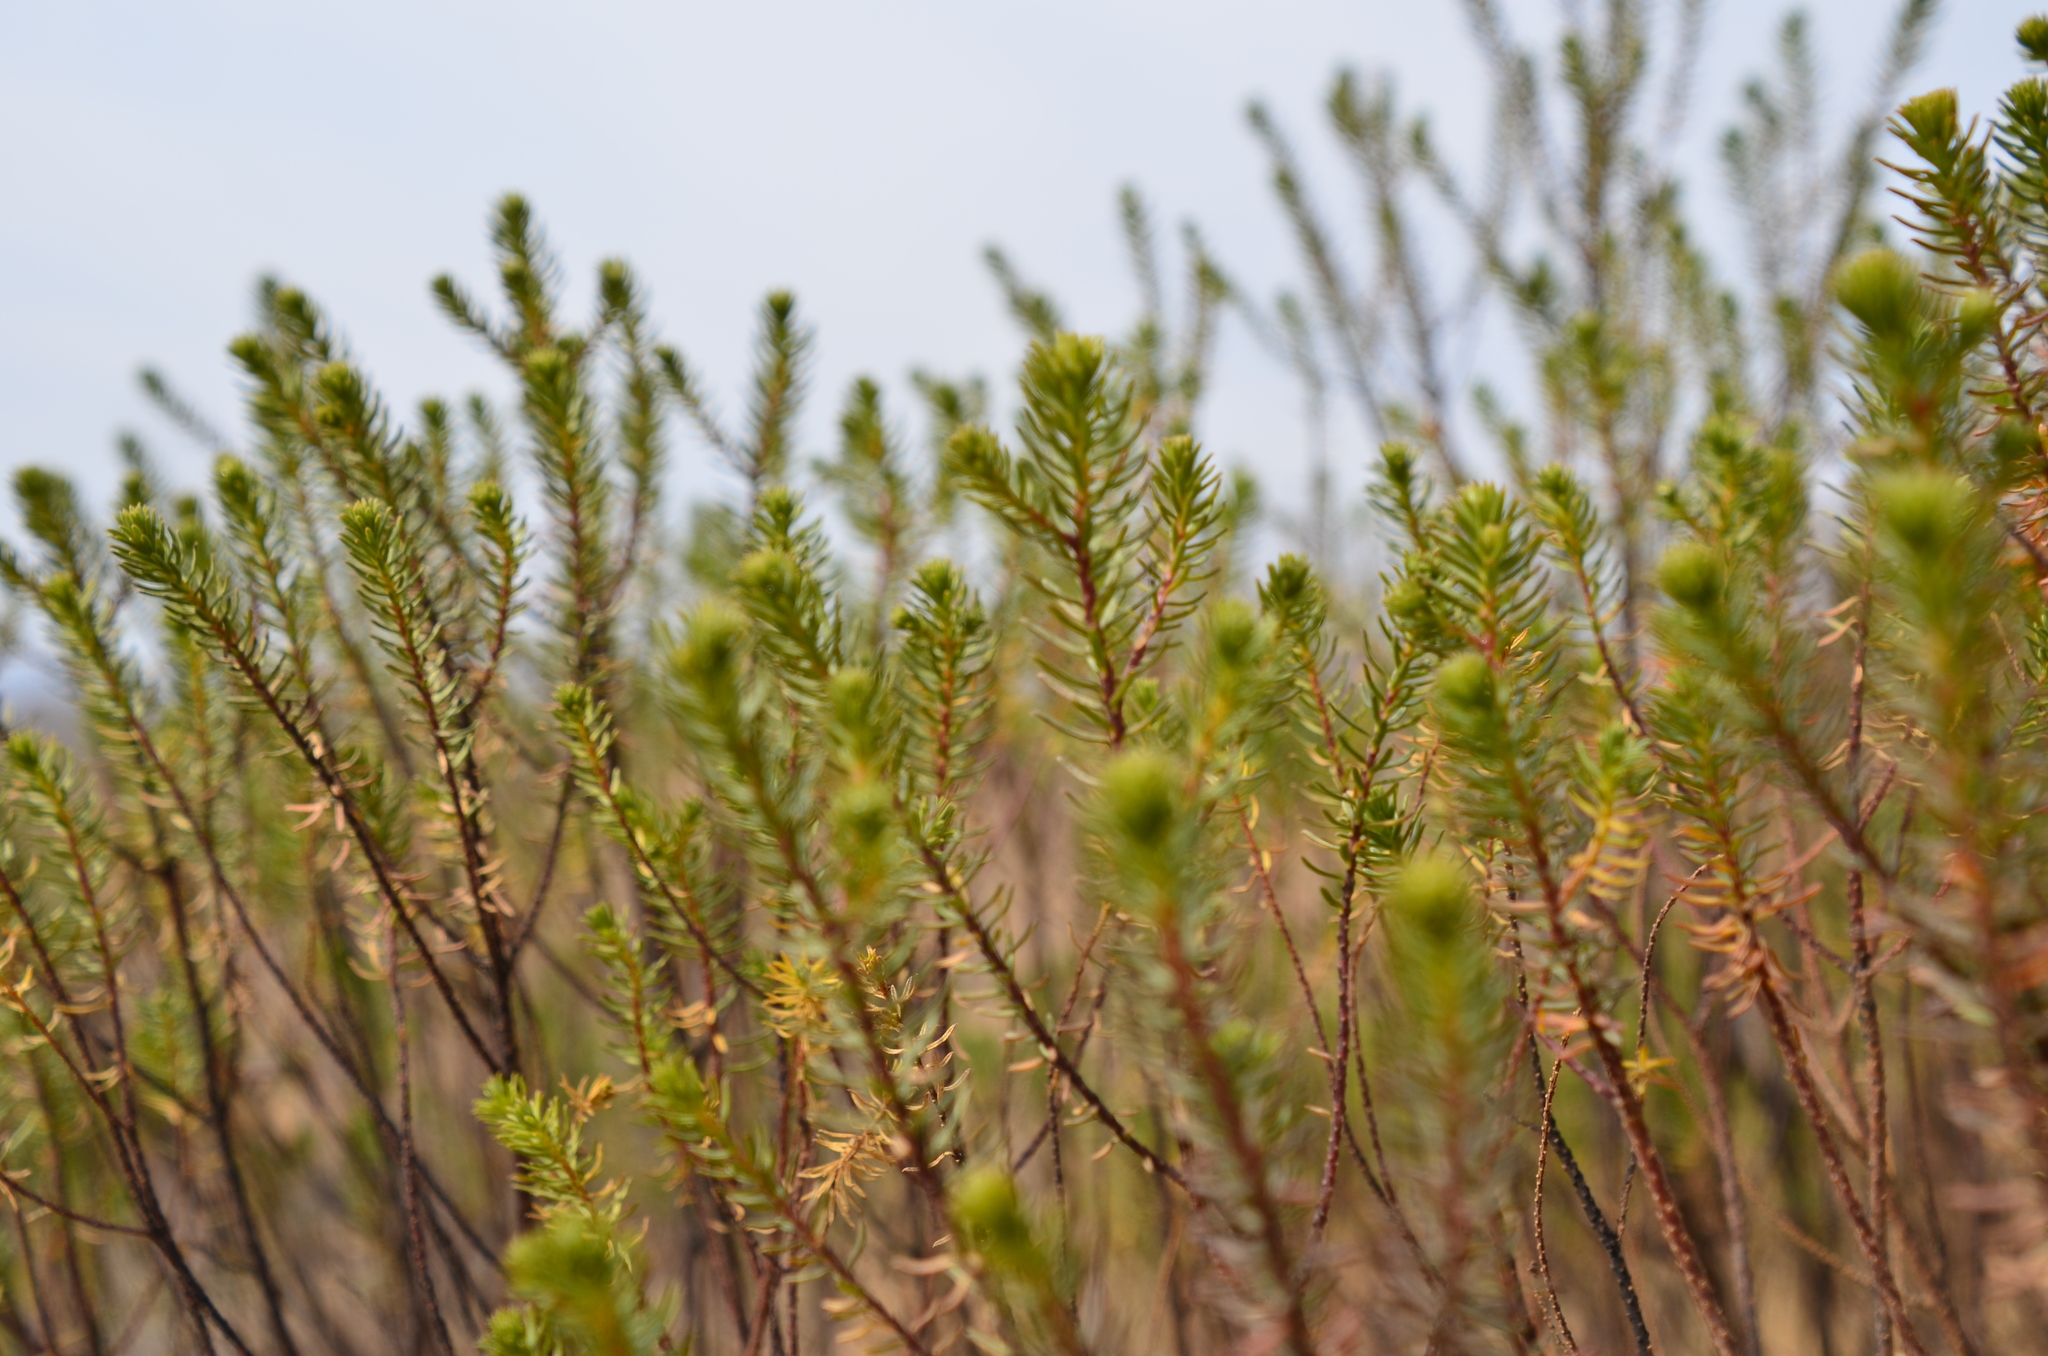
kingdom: Plantae
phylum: Tracheophyta
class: Magnoliopsida
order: Asterales
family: Asteraceae
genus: Baccharis
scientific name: Baccharis aliena
